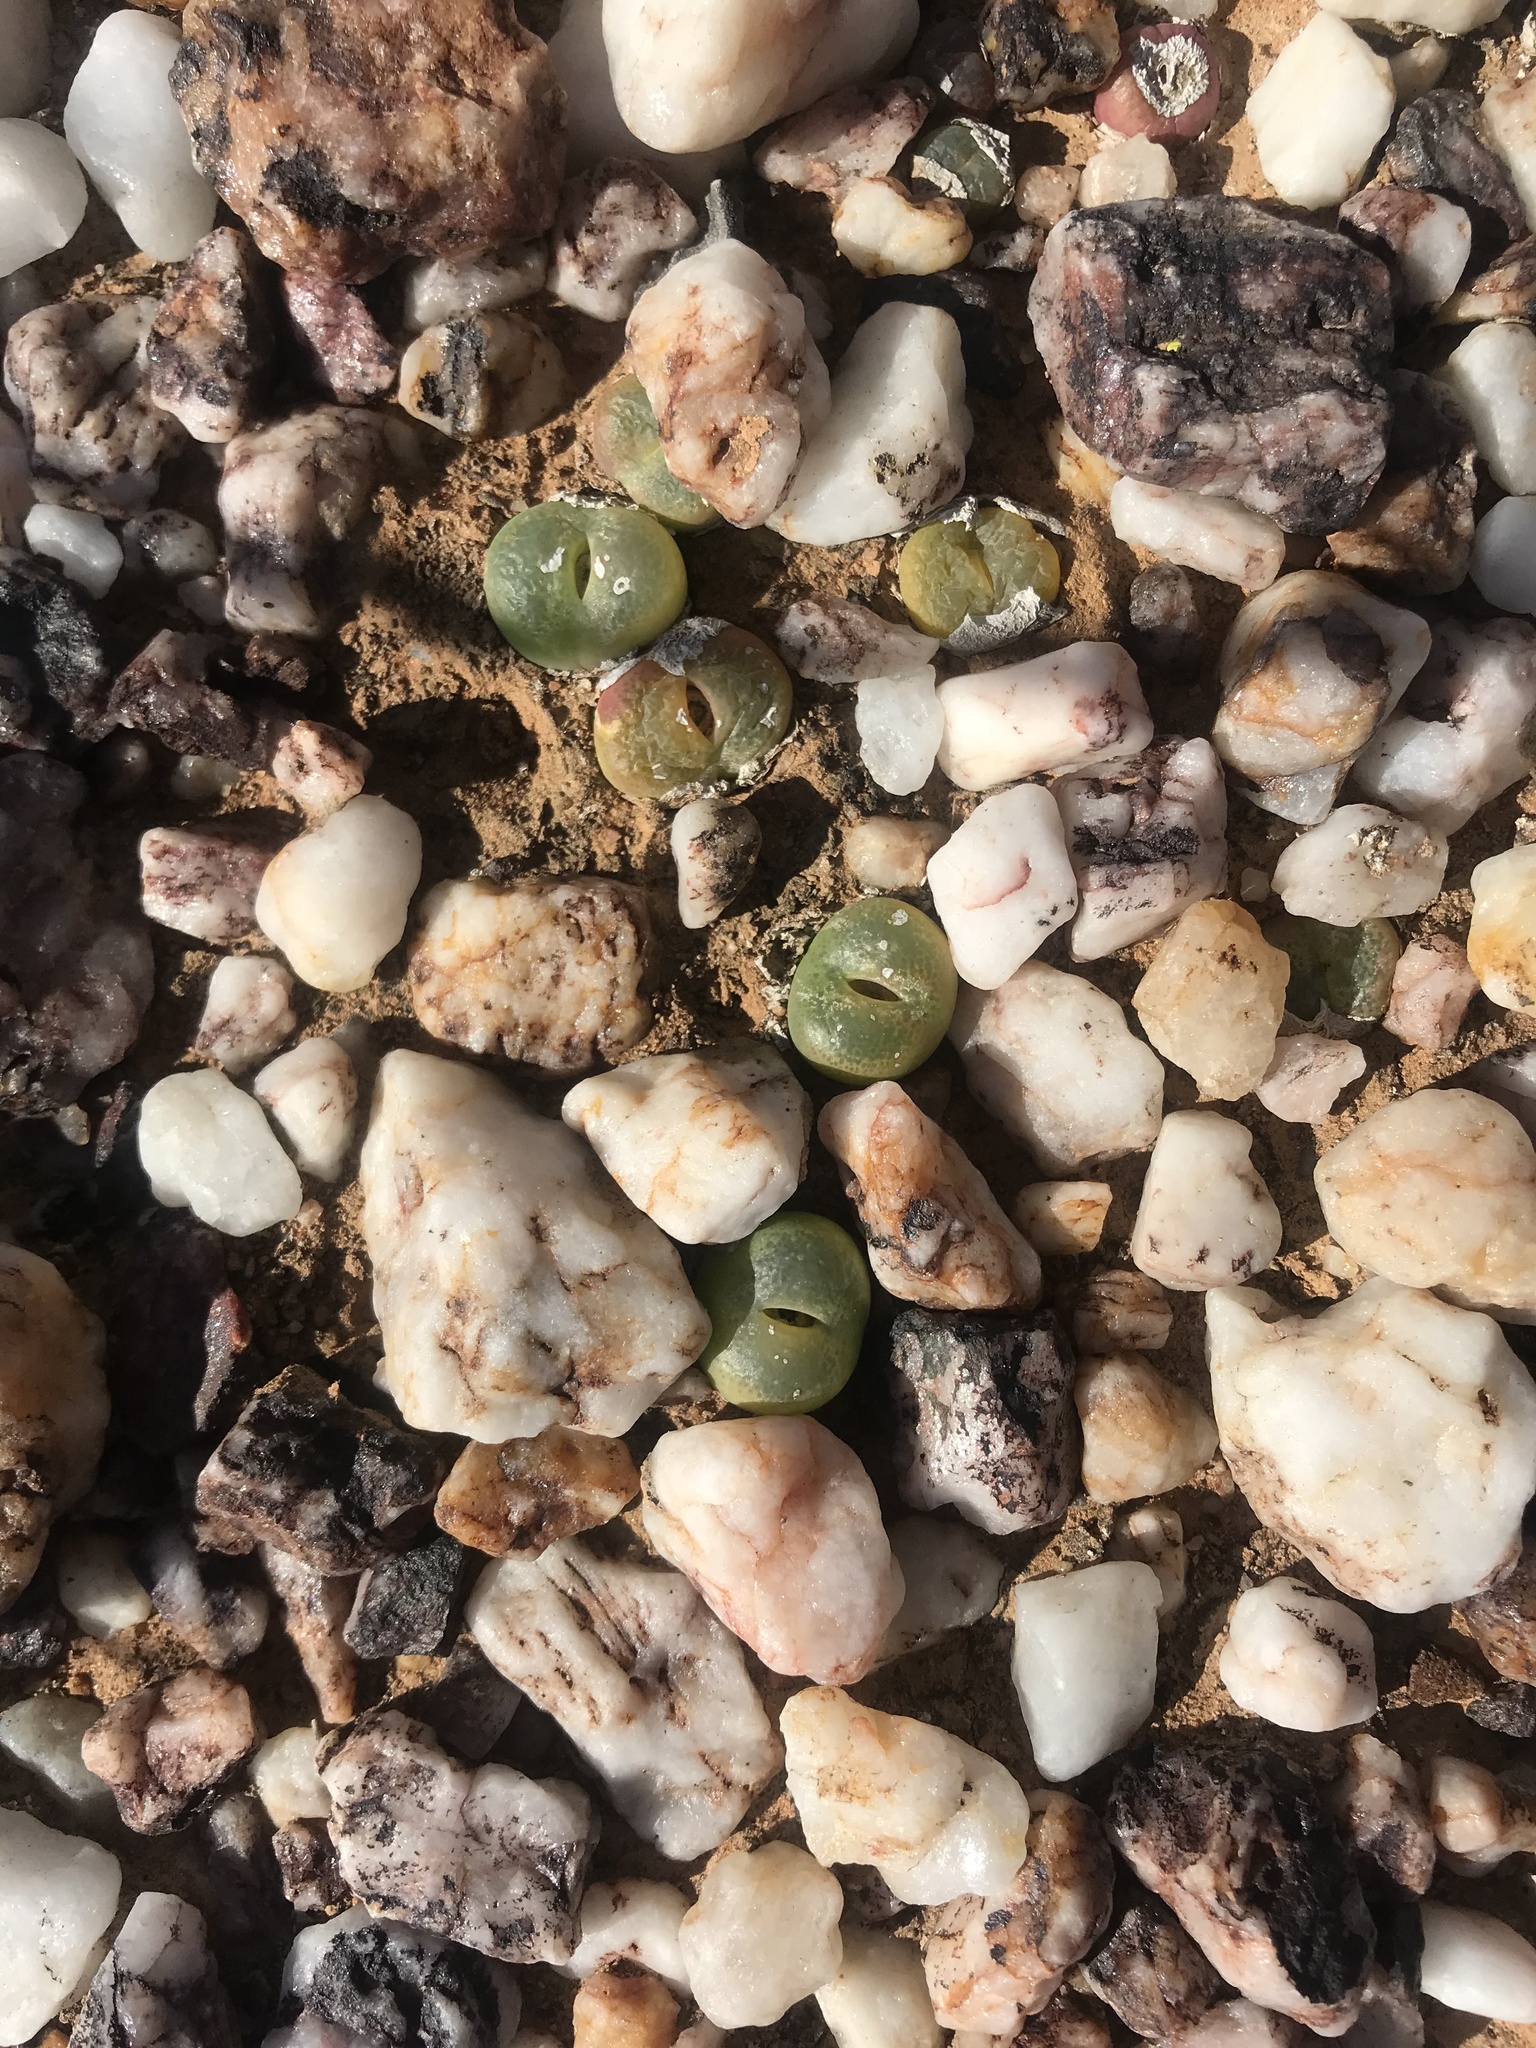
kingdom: Plantae
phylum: Tracheophyta
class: Magnoliopsida
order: Caryophyllales
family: Aizoaceae
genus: Conophytum
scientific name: Conophytum subfenestratum
